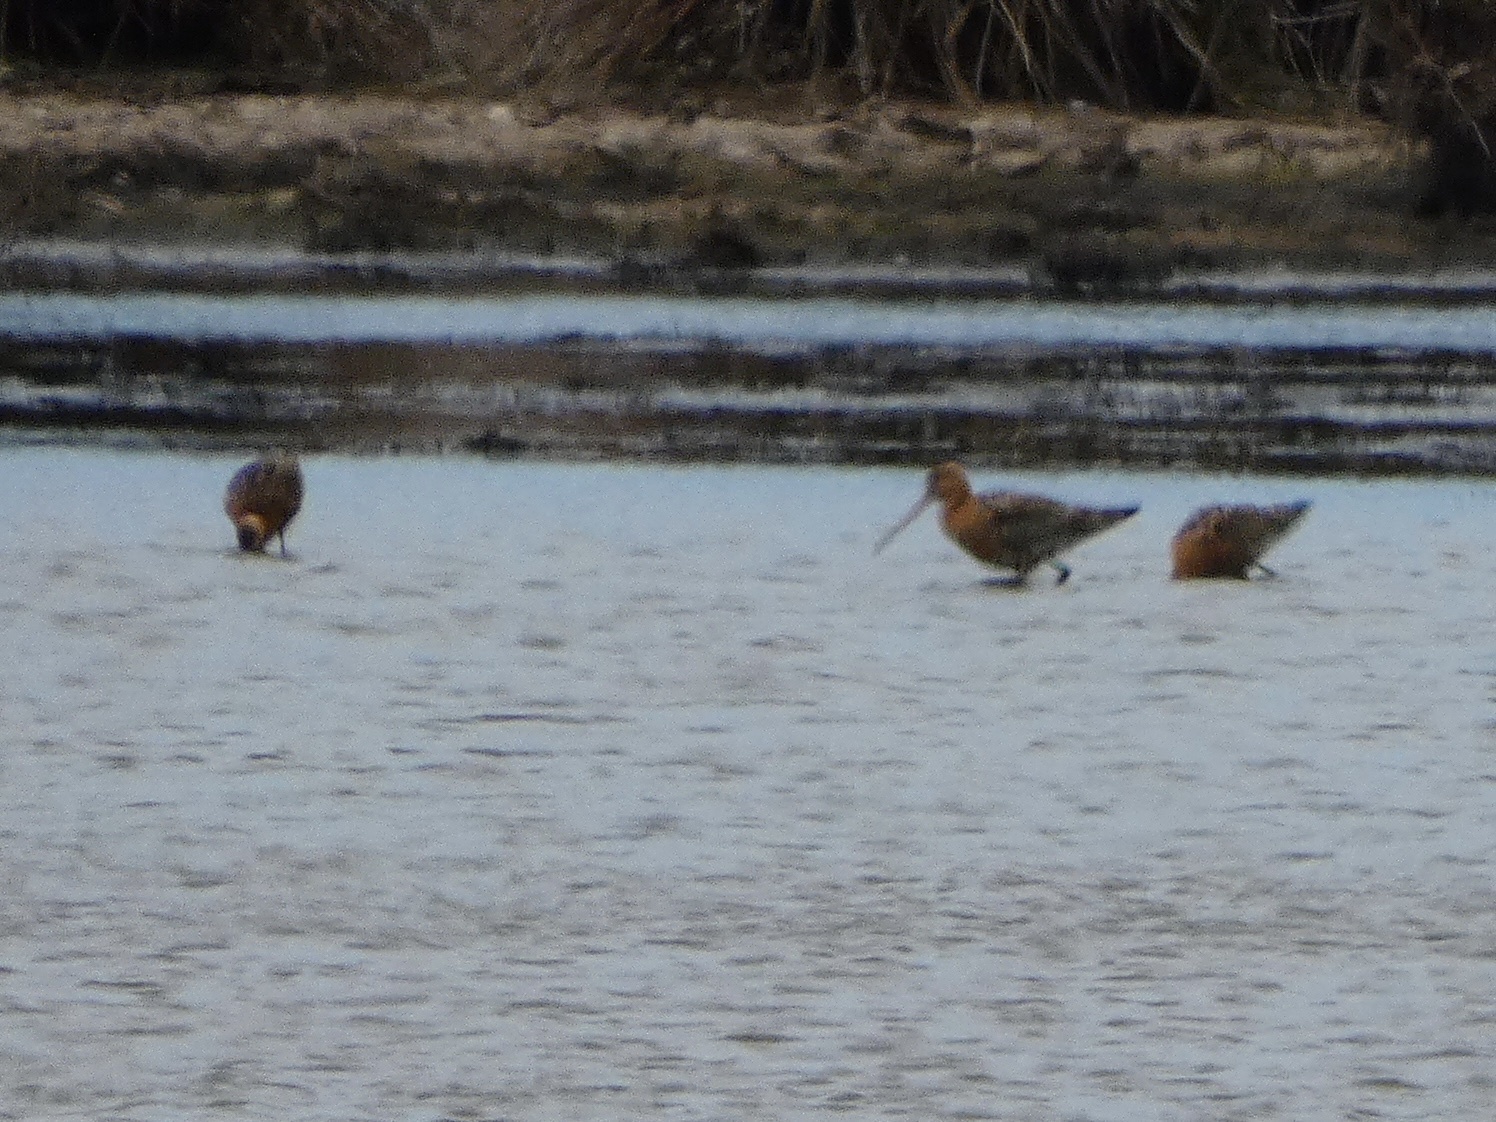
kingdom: Animalia
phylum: Chordata
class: Aves
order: Charadriiformes
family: Scolopacidae
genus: Limosa
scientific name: Limosa limosa
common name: Black-tailed godwit
